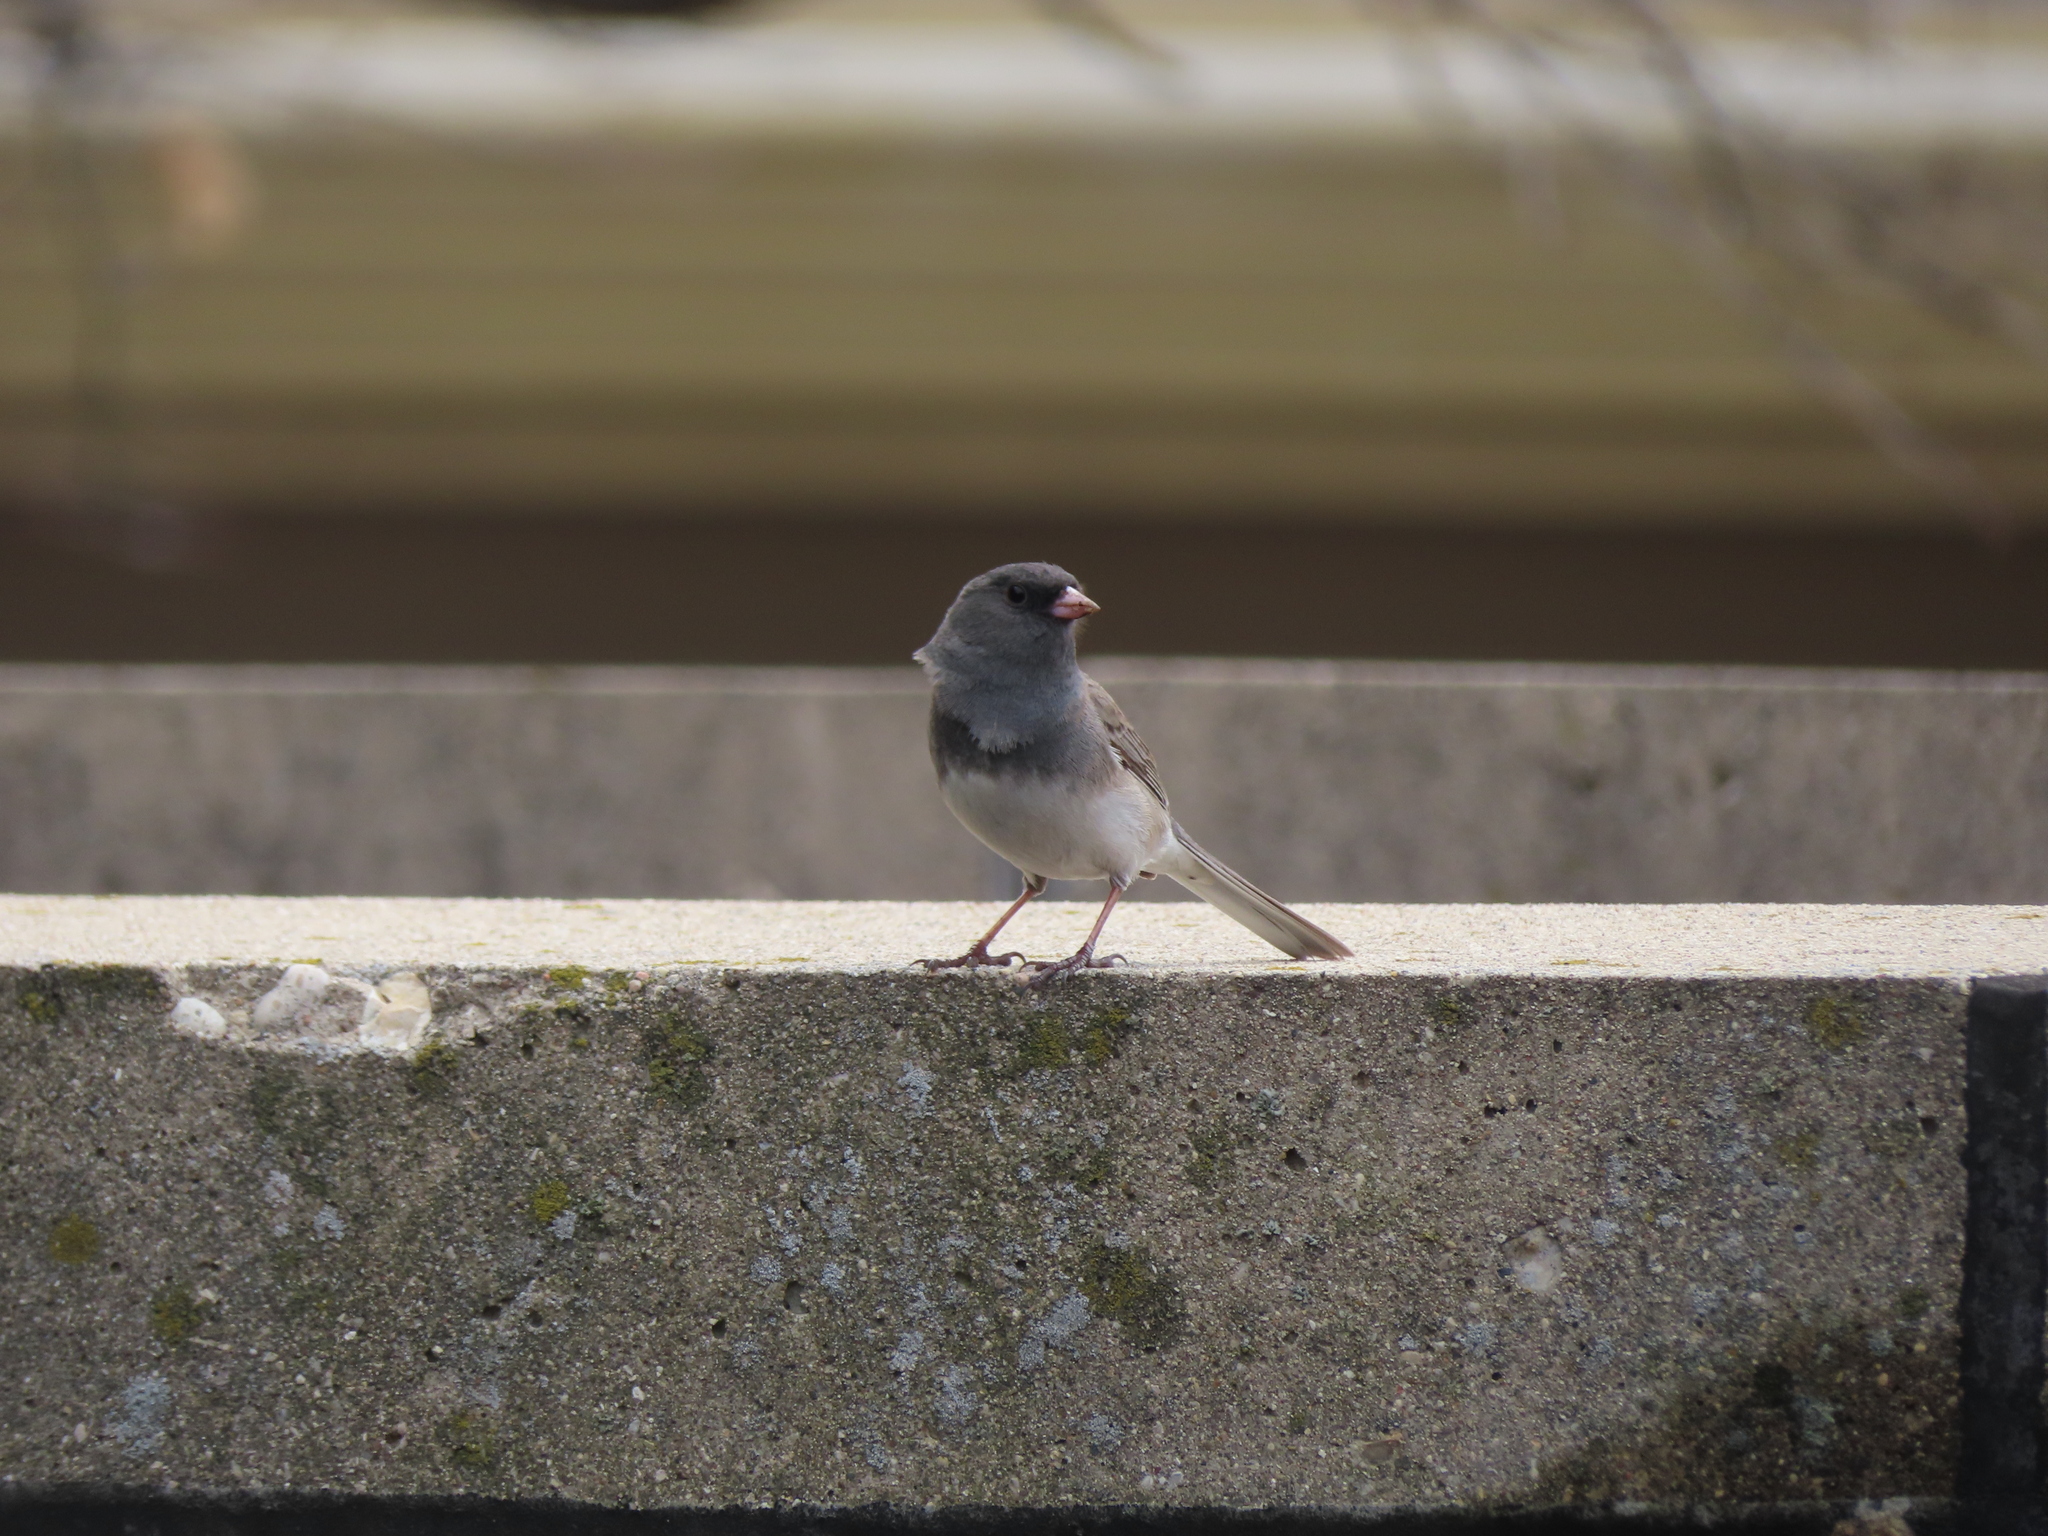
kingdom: Animalia
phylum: Chordata
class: Aves
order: Passeriformes
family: Passerellidae
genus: Junco
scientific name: Junco hyemalis
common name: Dark-eyed junco
